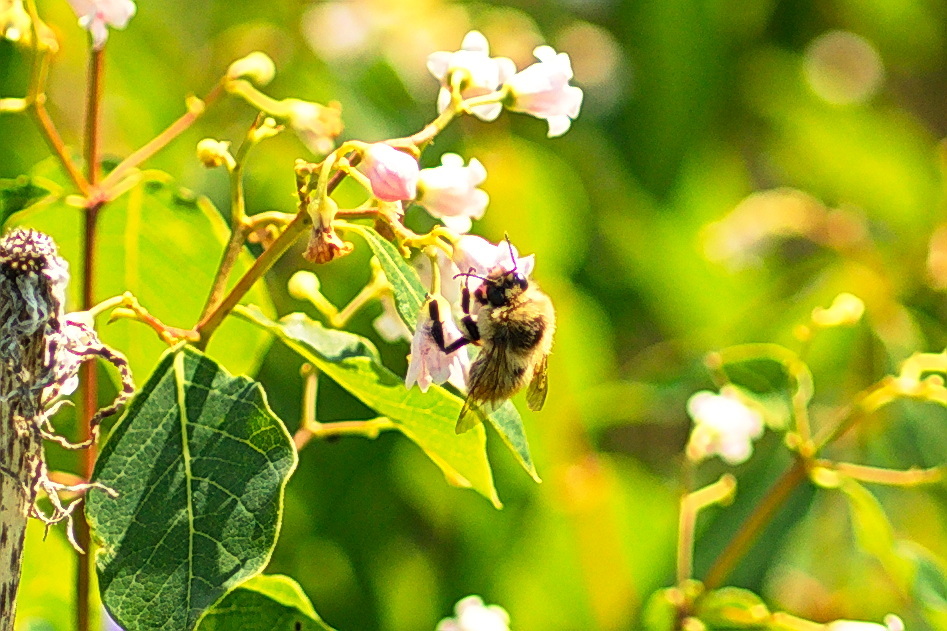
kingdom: Animalia
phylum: Arthropoda
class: Insecta
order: Hymenoptera
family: Apidae
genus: Bombus
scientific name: Bombus rufocinctus
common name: Red-belted bumble bee
